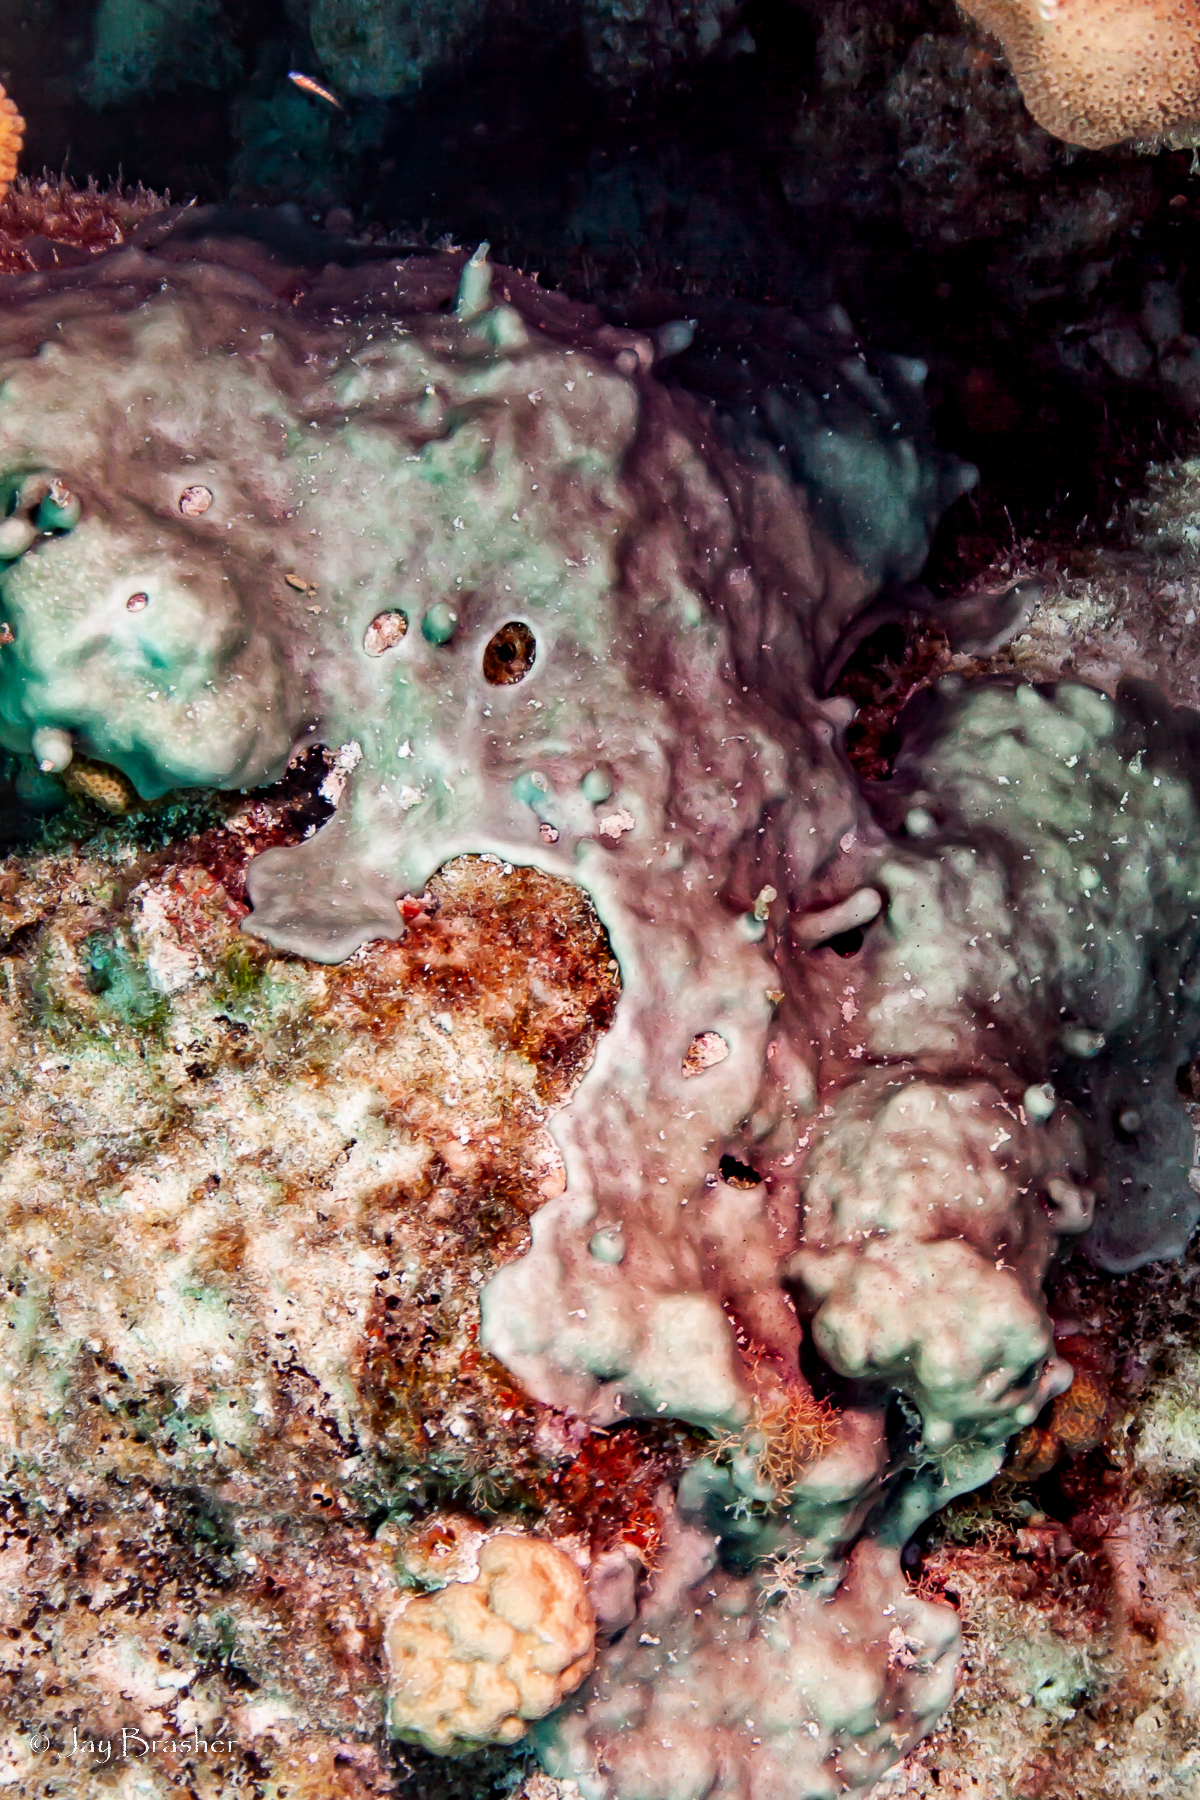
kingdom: Animalia
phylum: Chordata
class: Ascidiacea
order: Aplousobranchia
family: Didemnidae
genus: Trididemnum
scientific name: Trididemnum solidum
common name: Overgrowing mat tunicate
